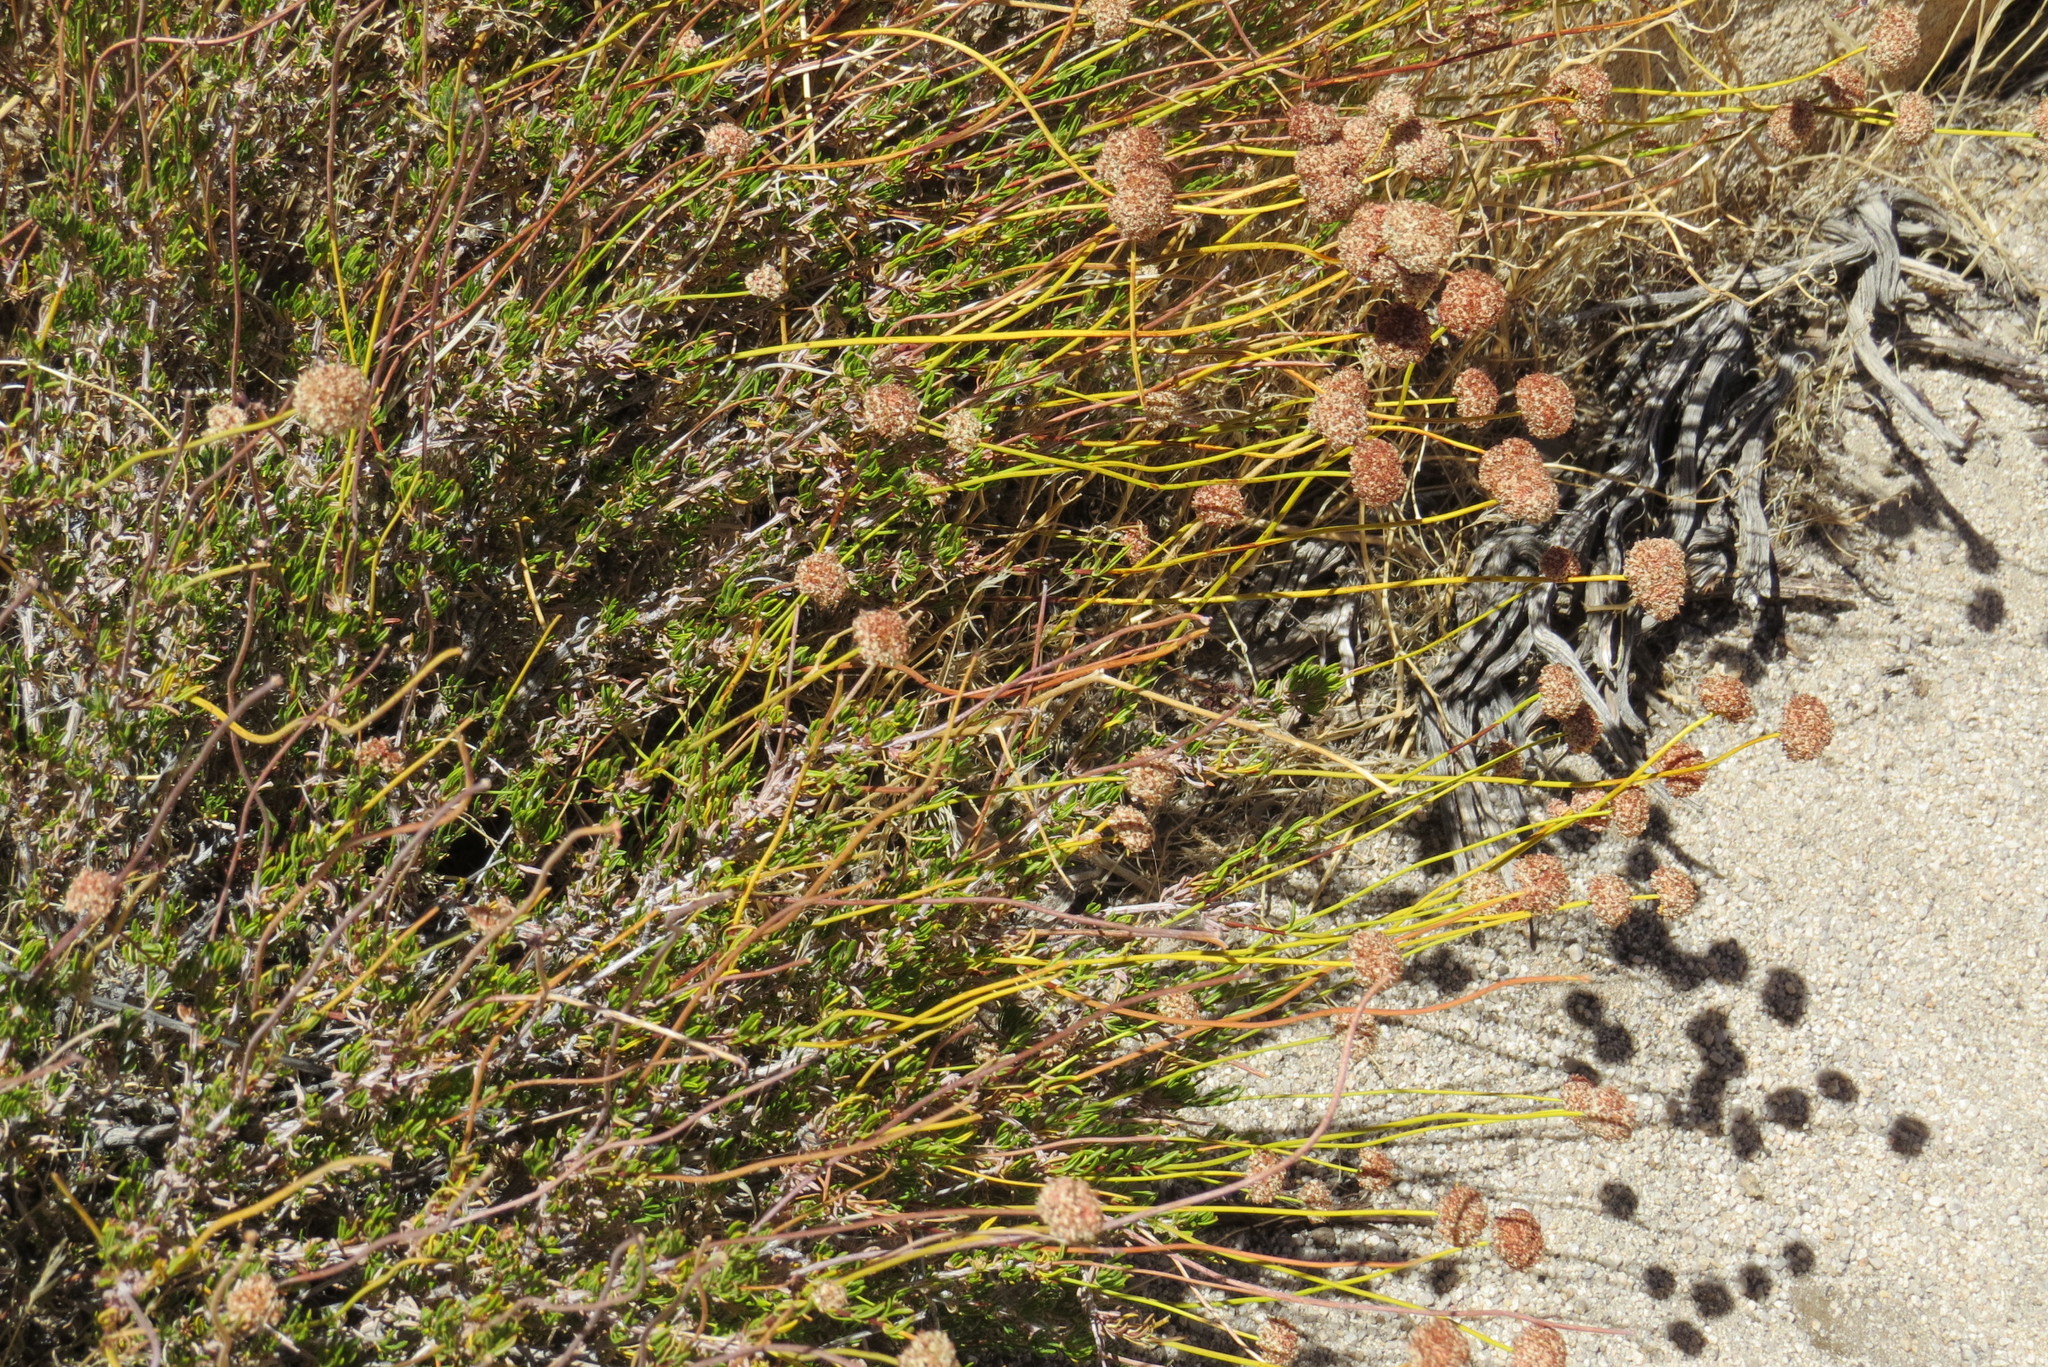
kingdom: Plantae
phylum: Tracheophyta
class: Magnoliopsida
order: Caryophyllales
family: Polygonaceae
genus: Eriogonum
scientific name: Eriogonum fasciculatum
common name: California wild buckwheat
